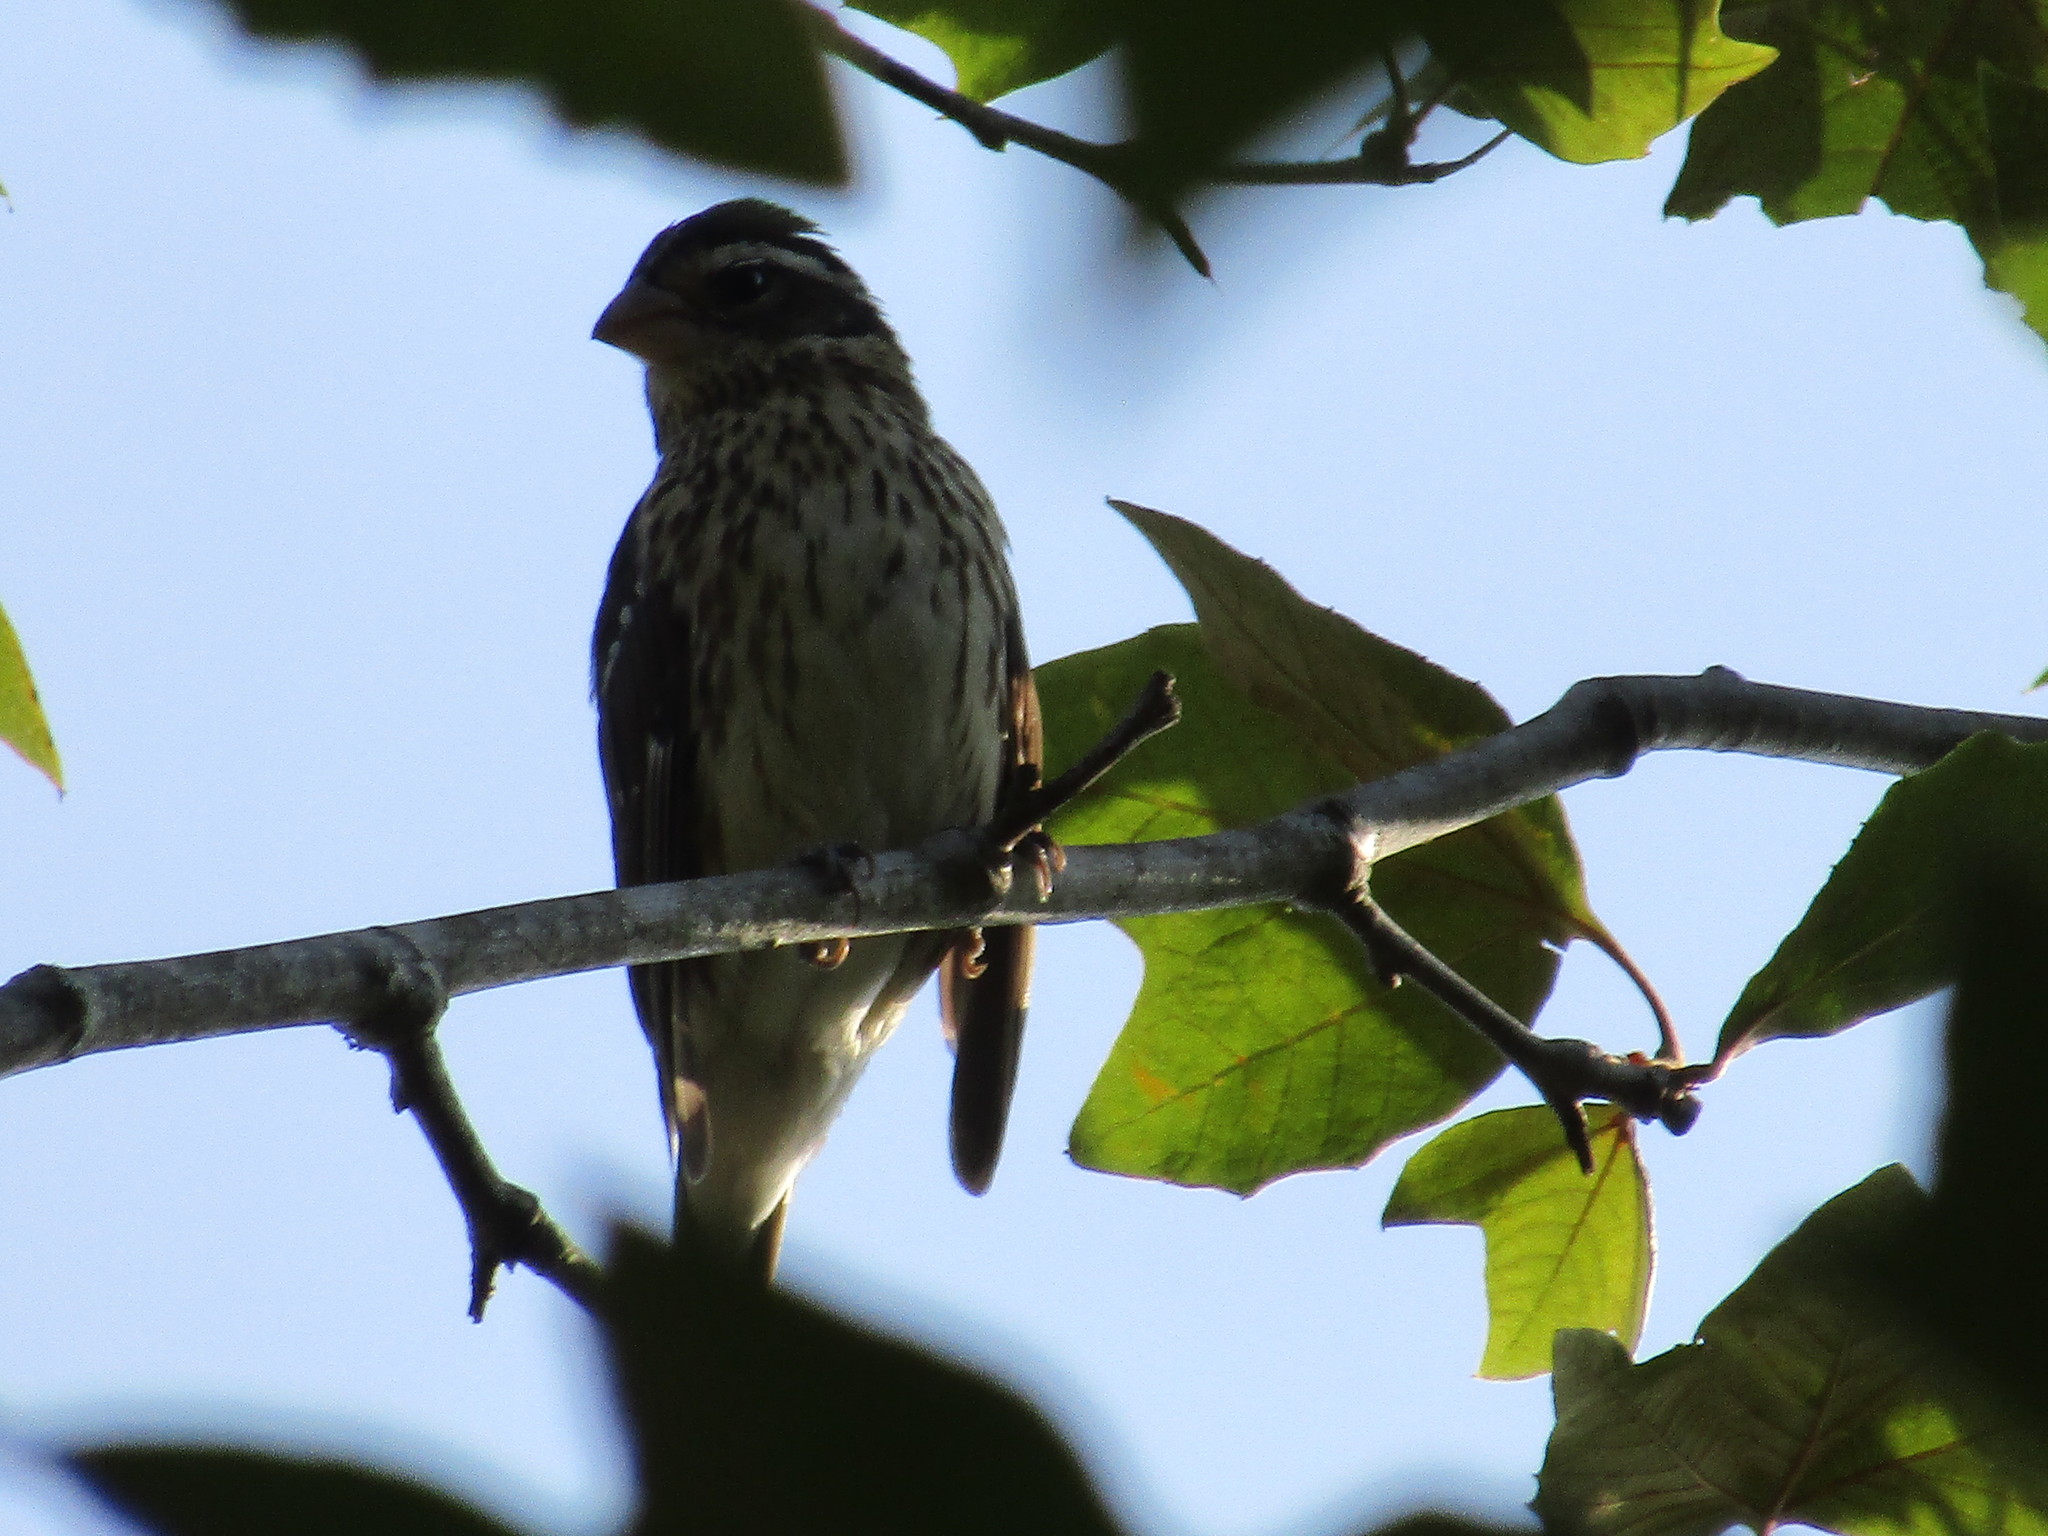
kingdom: Animalia
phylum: Chordata
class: Aves
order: Passeriformes
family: Cardinalidae
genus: Pheucticus
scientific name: Pheucticus ludovicianus
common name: Rose-breasted grosbeak
